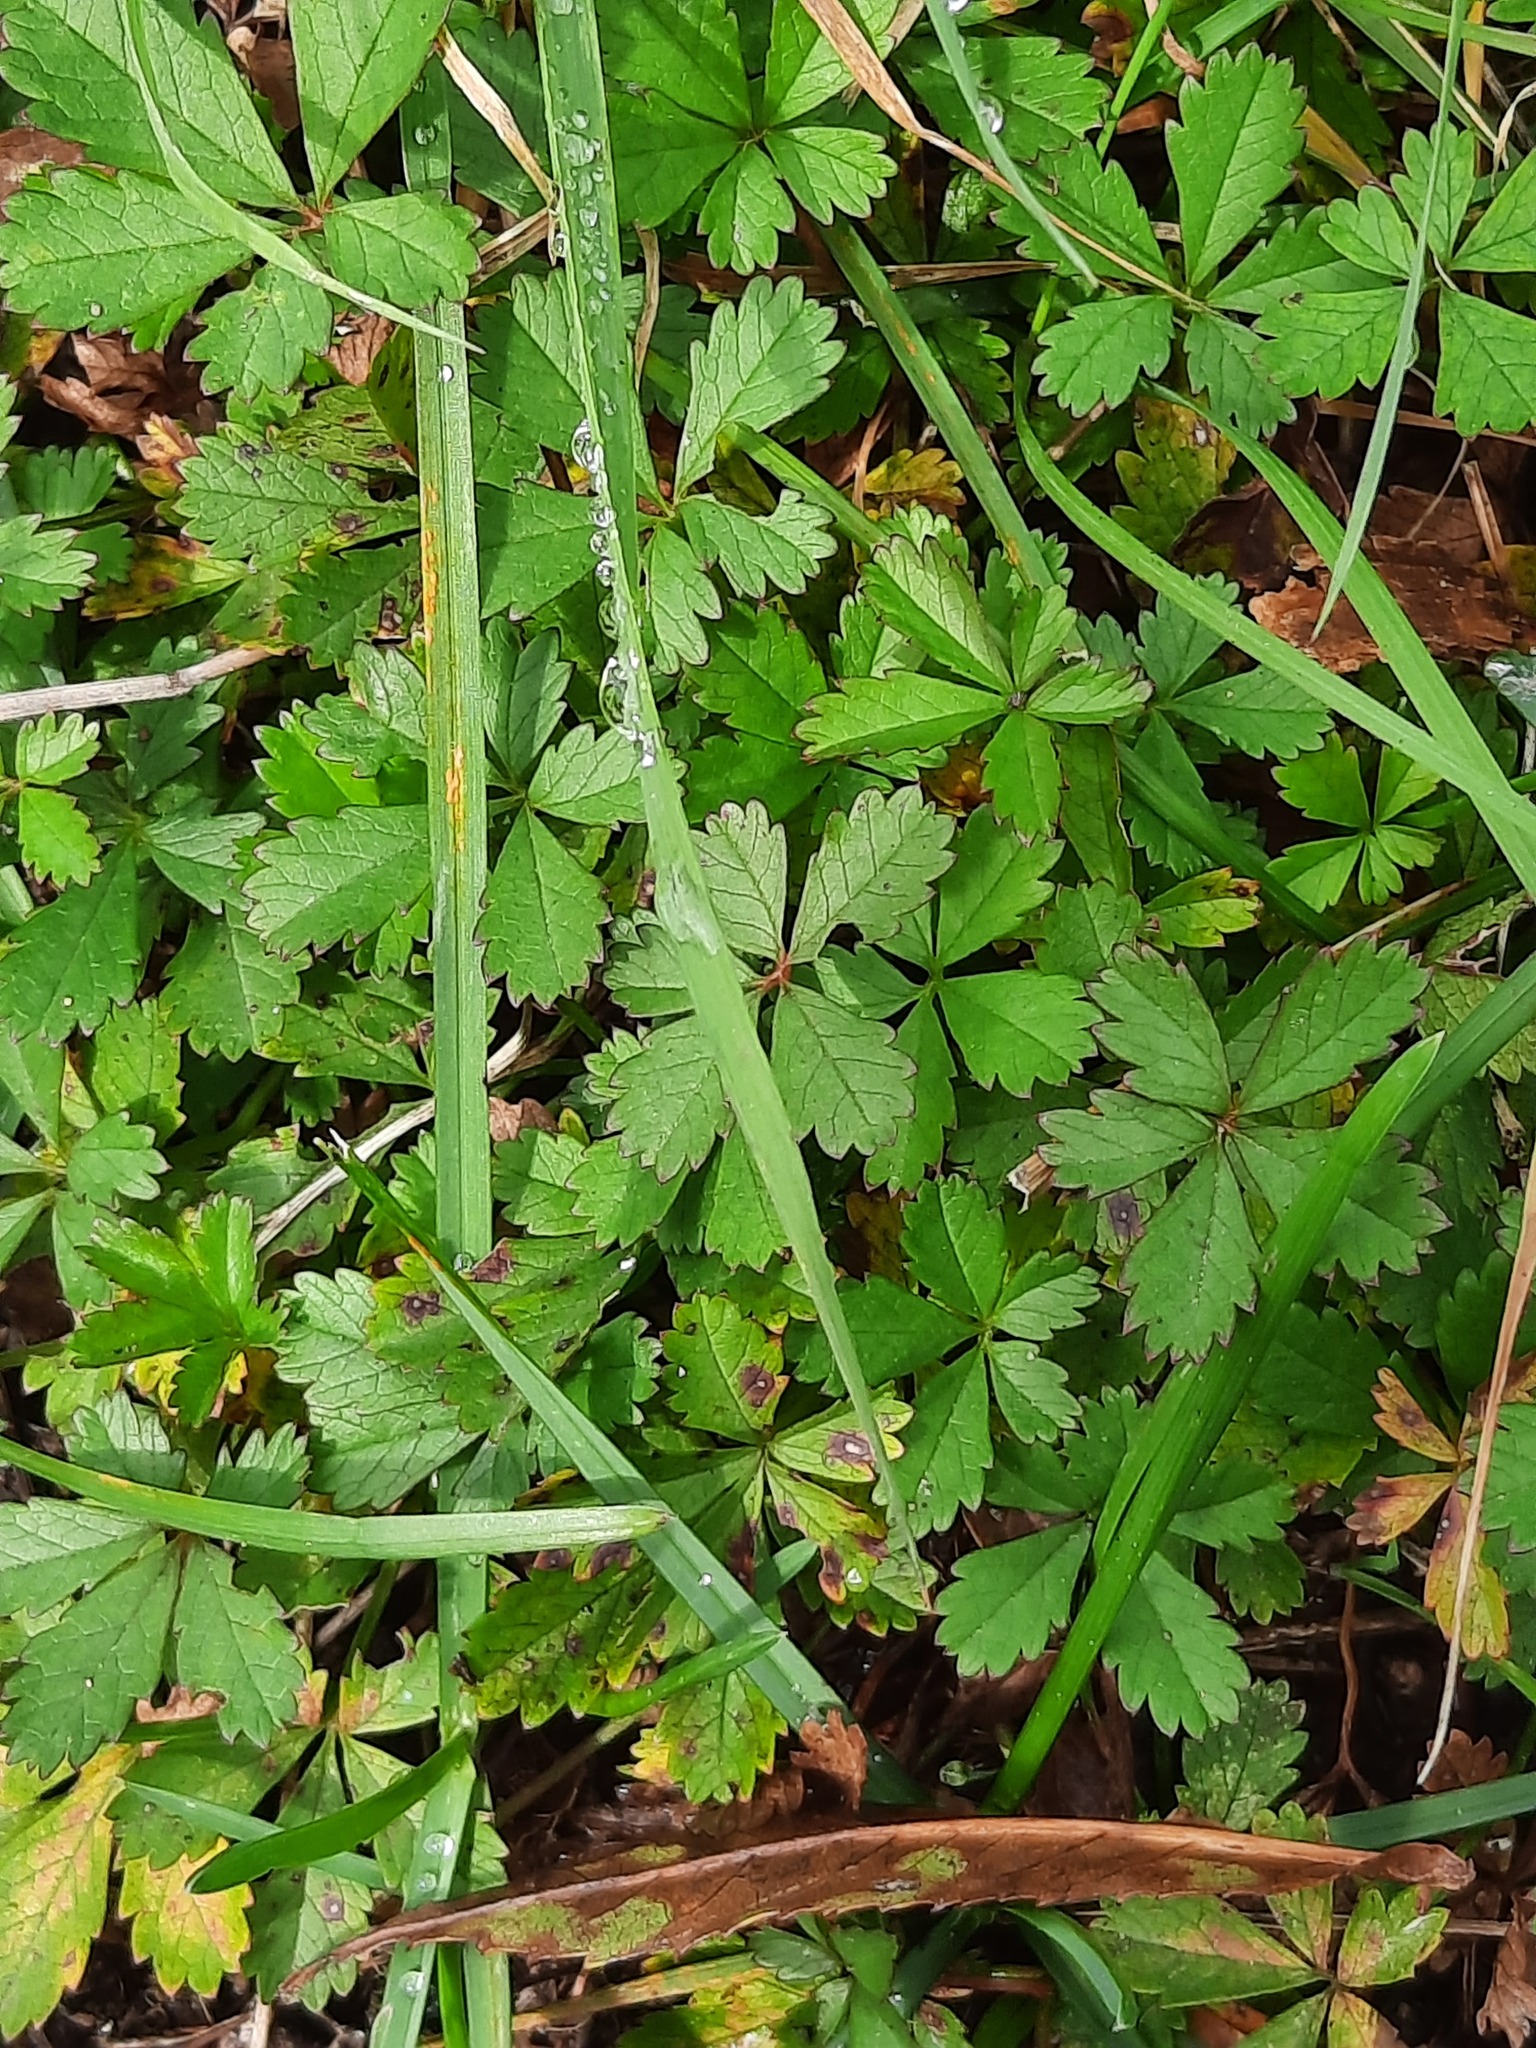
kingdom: Plantae
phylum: Tracheophyta
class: Magnoliopsida
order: Rosales
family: Rosaceae
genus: Potentilla
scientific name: Potentilla reptans
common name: Creeping cinquefoil
